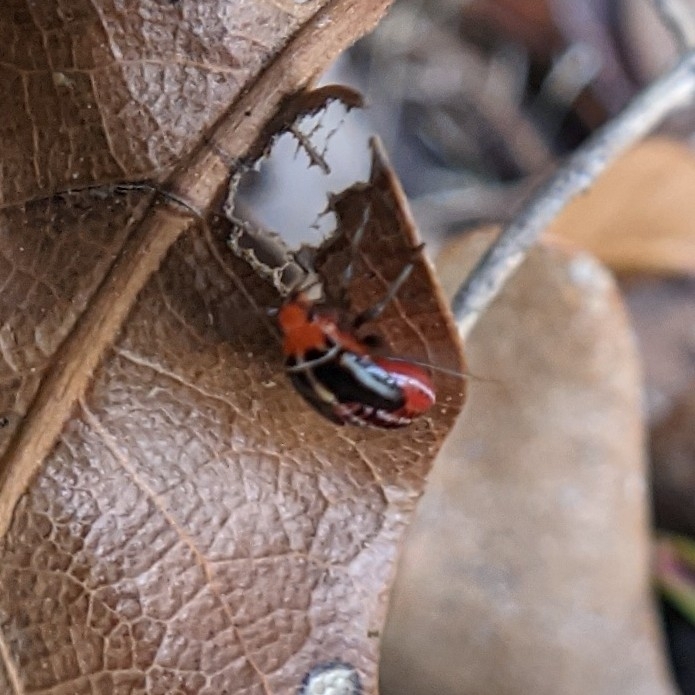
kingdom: Animalia
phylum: Arthropoda
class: Insecta
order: Hemiptera
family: Miridae
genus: Poecilocapsus
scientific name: Poecilocapsus lineatus
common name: Four-lined plant bug
